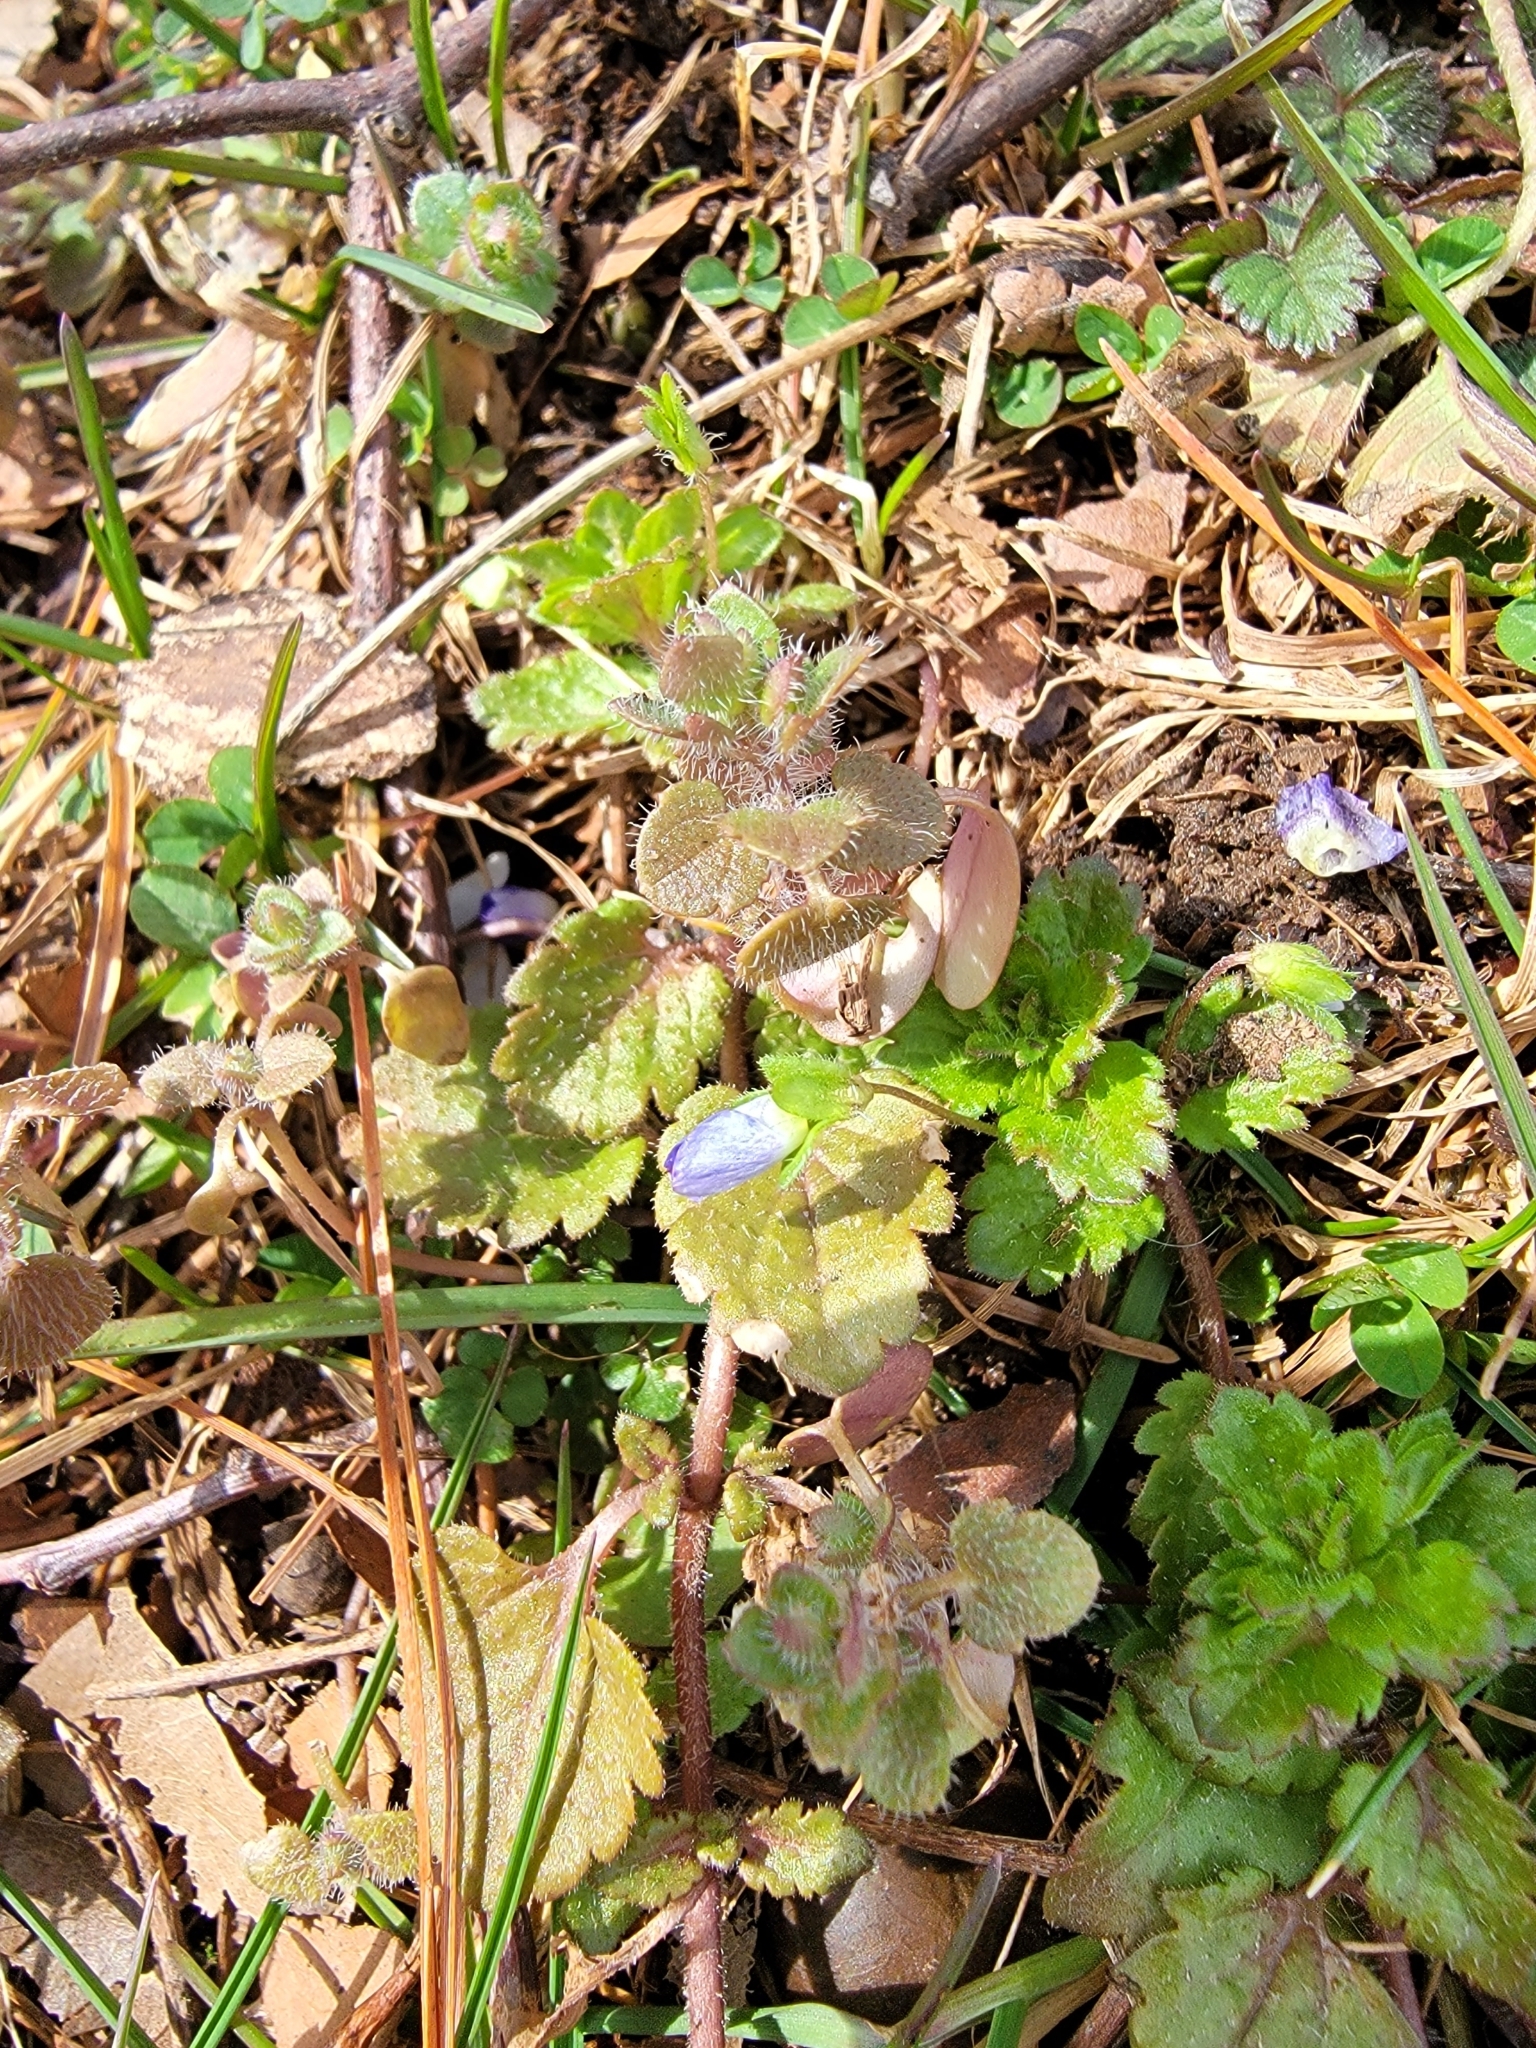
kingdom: Plantae
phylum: Tracheophyta
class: Magnoliopsida
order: Lamiales
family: Plantaginaceae
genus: Veronica
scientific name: Veronica persica
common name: Common field-speedwell
